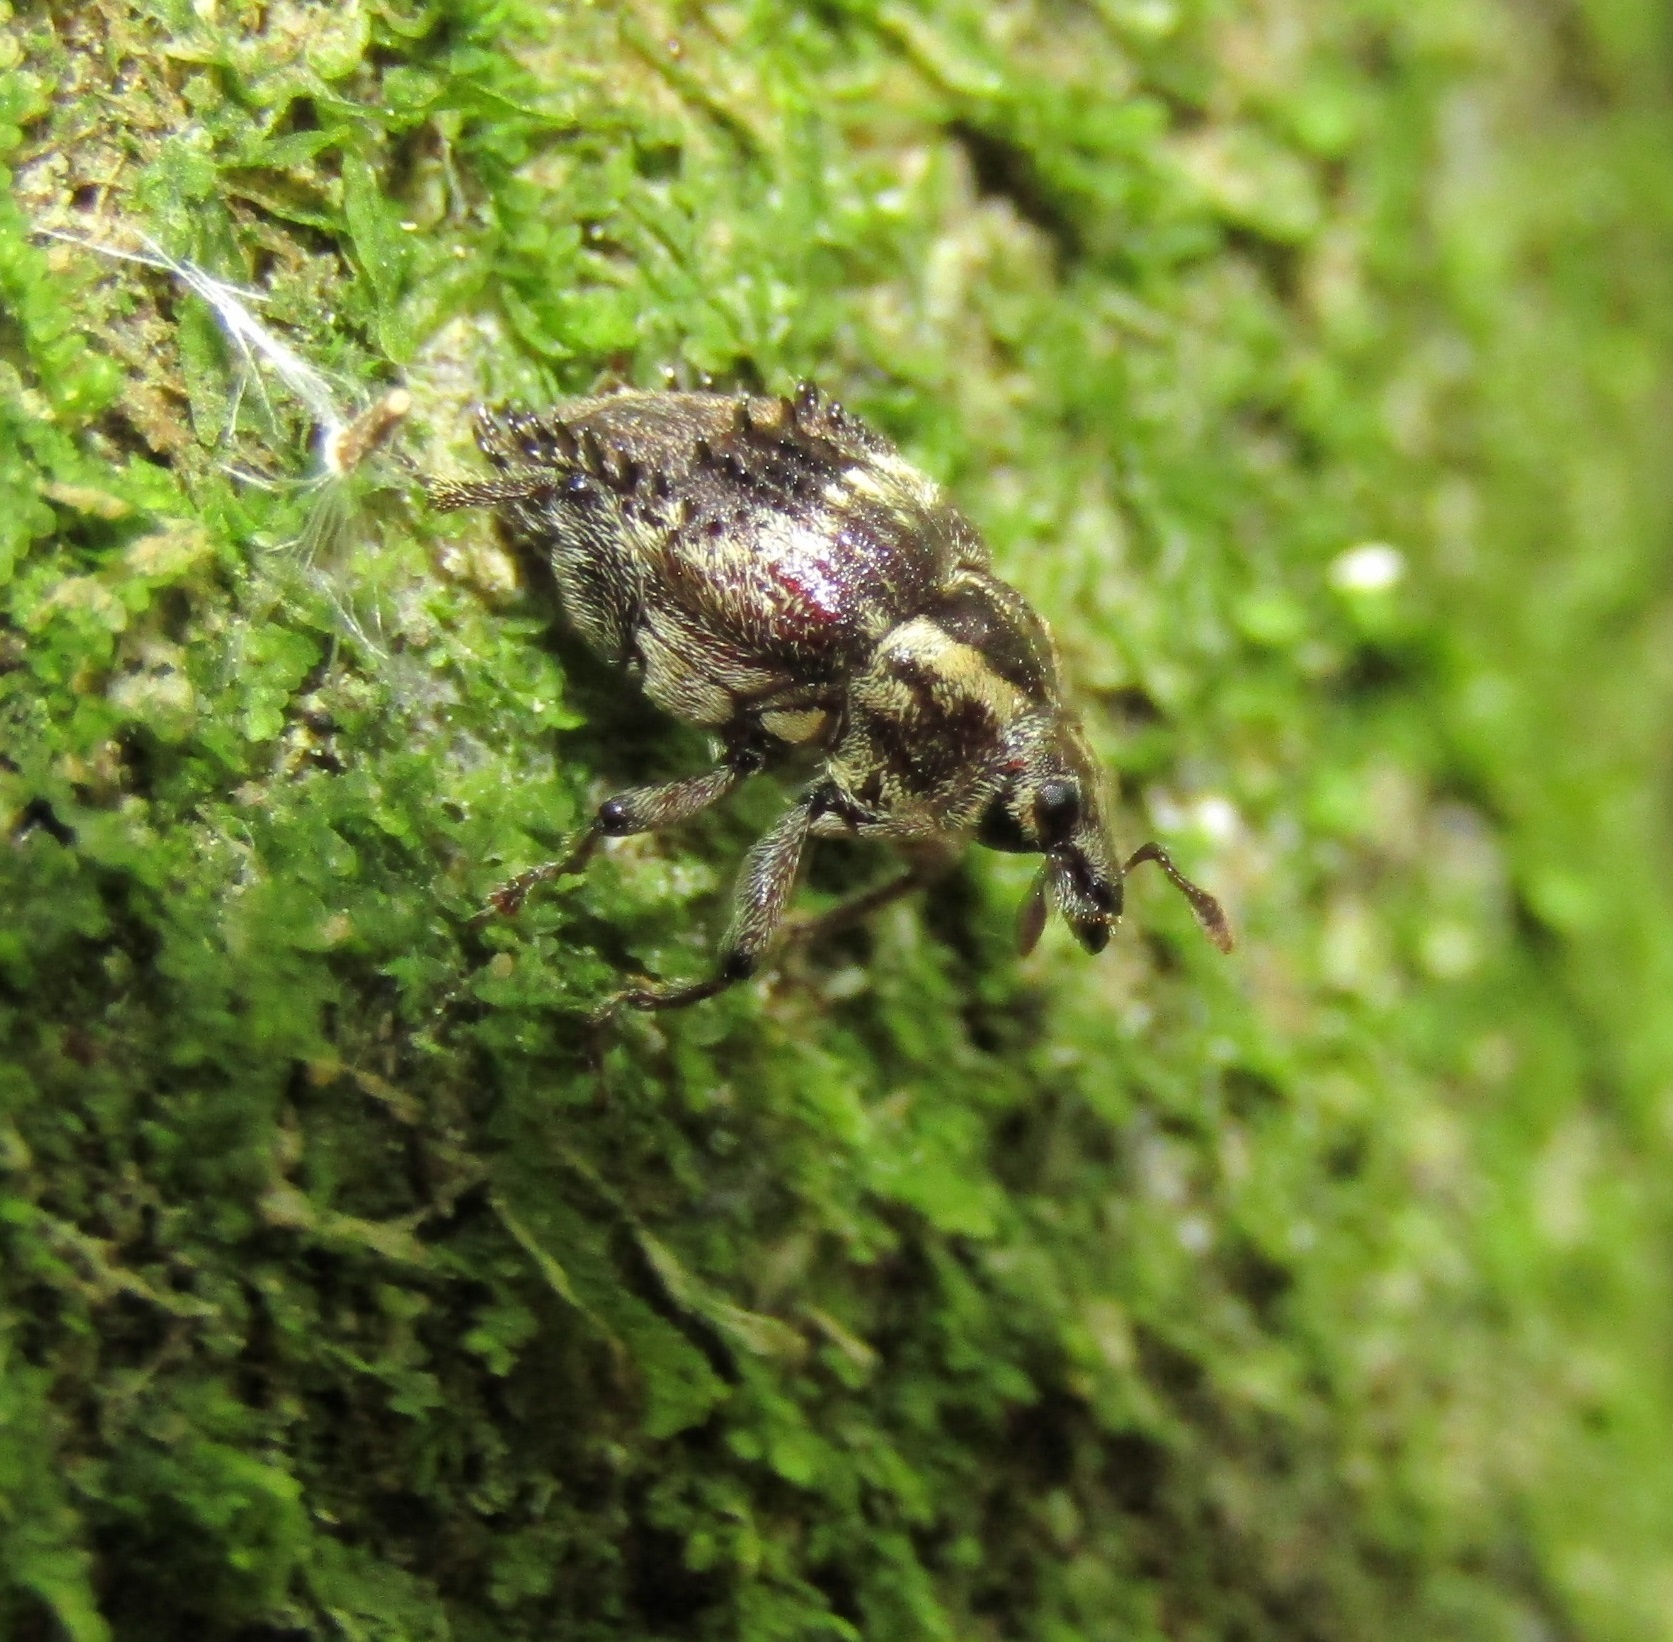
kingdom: Animalia
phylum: Arthropoda
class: Insecta
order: Coleoptera
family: Curculionidae
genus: Psepholax
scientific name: Psepholax coronatus
